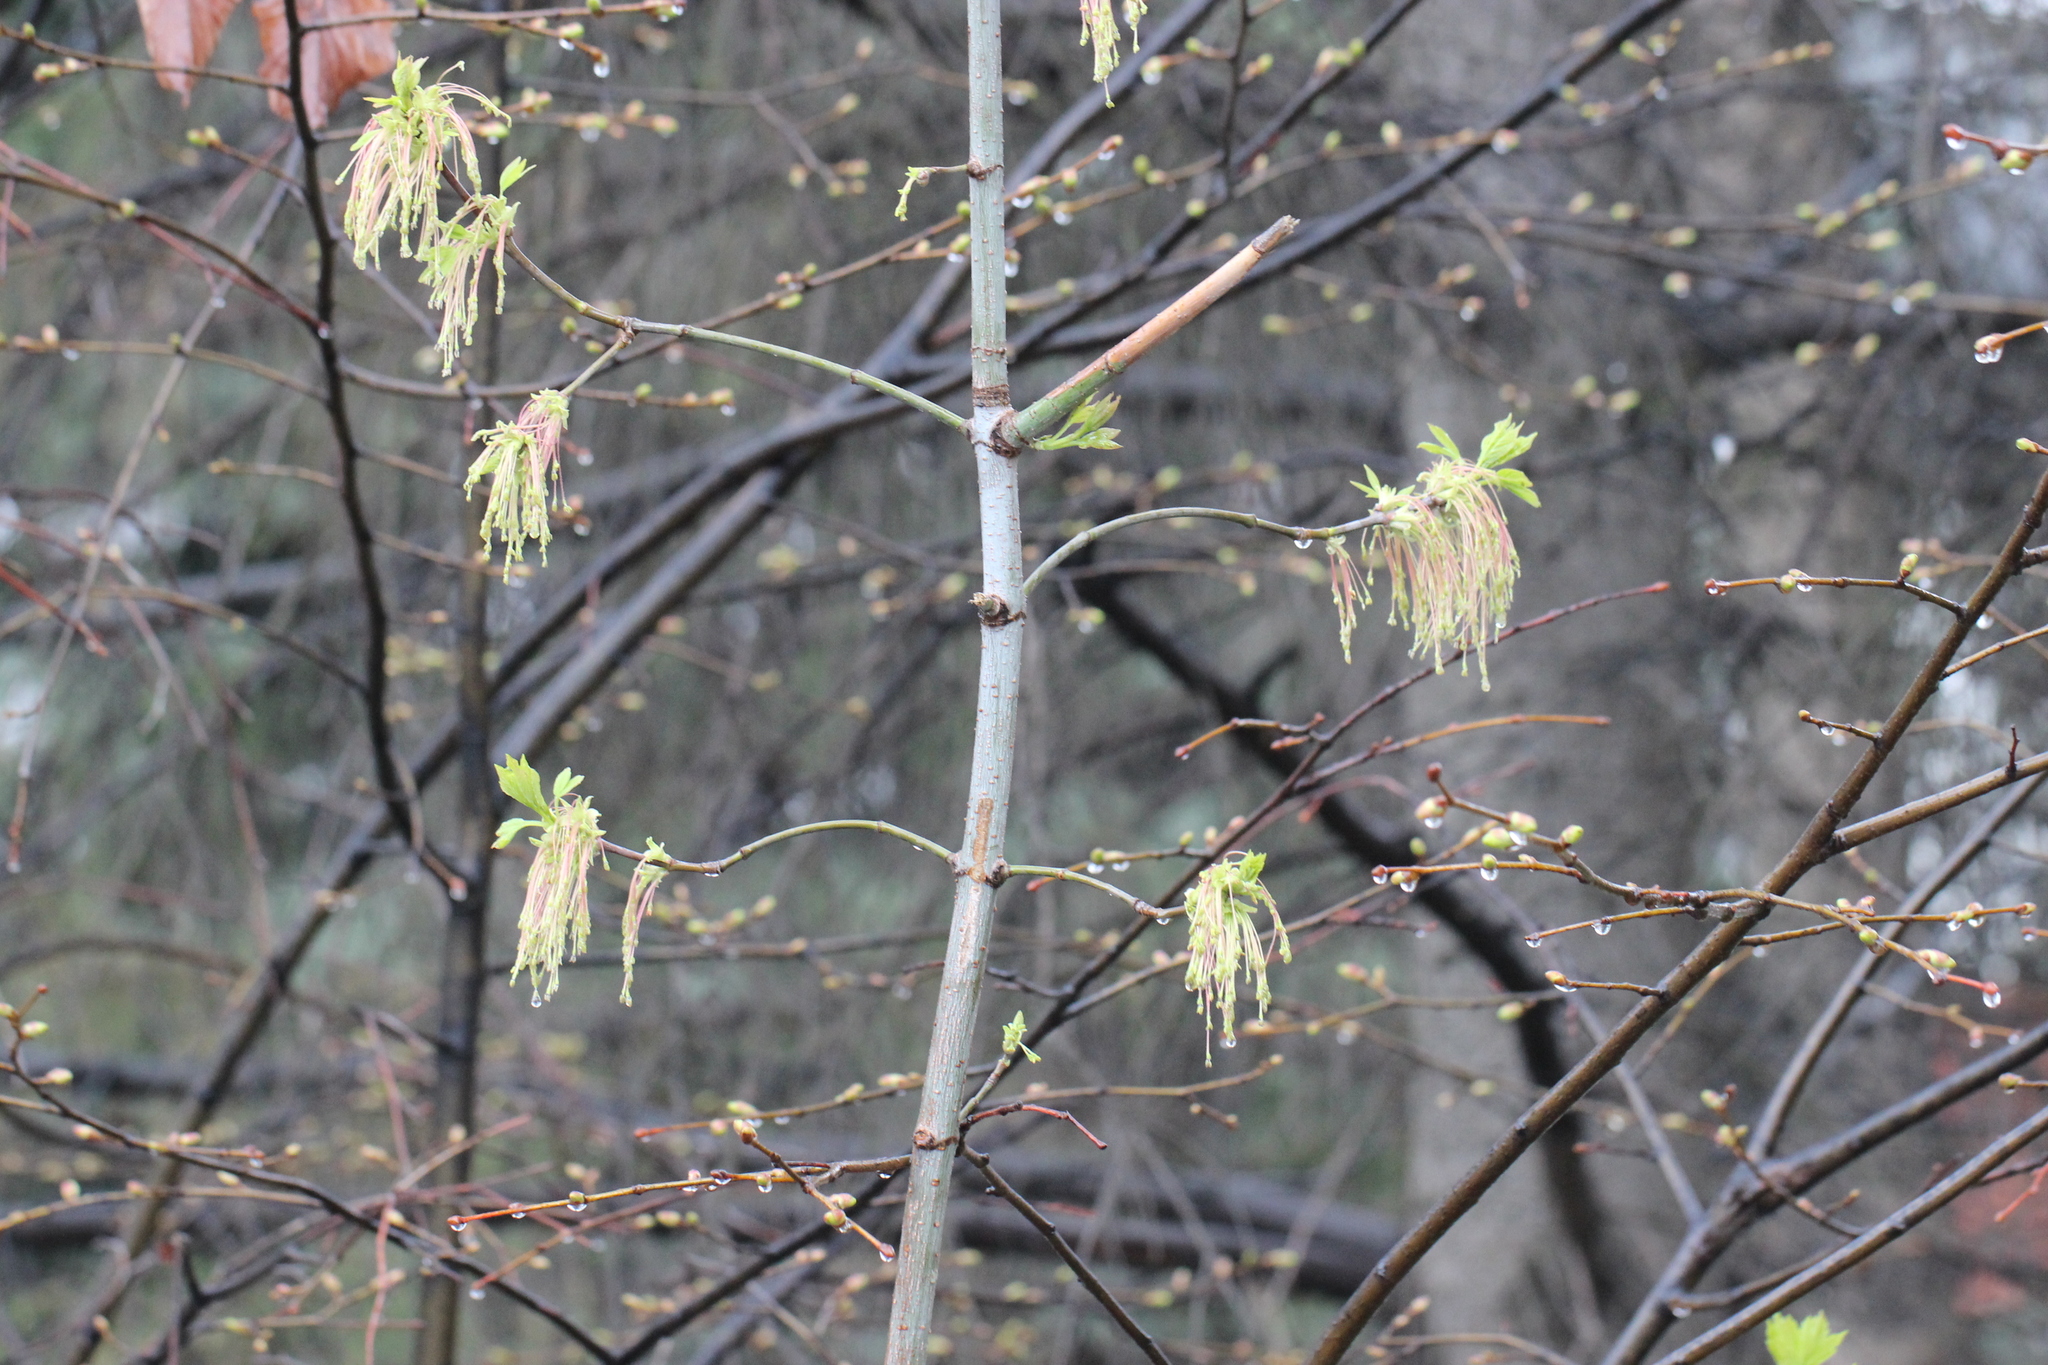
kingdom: Plantae
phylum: Tracheophyta
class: Magnoliopsida
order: Sapindales
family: Sapindaceae
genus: Acer
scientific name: Acer negundo
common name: Ashleaf maple
